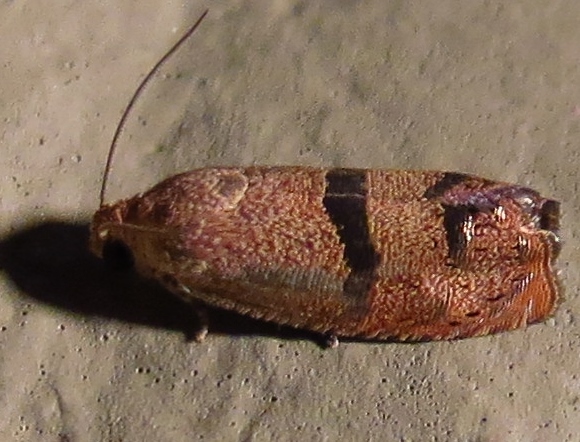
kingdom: Animalia
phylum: Arthropoda
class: Insecta
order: Lepidoptera
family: Tortricidae
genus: Cydia
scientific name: Cydia latiferreana
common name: Filbertworm moth
